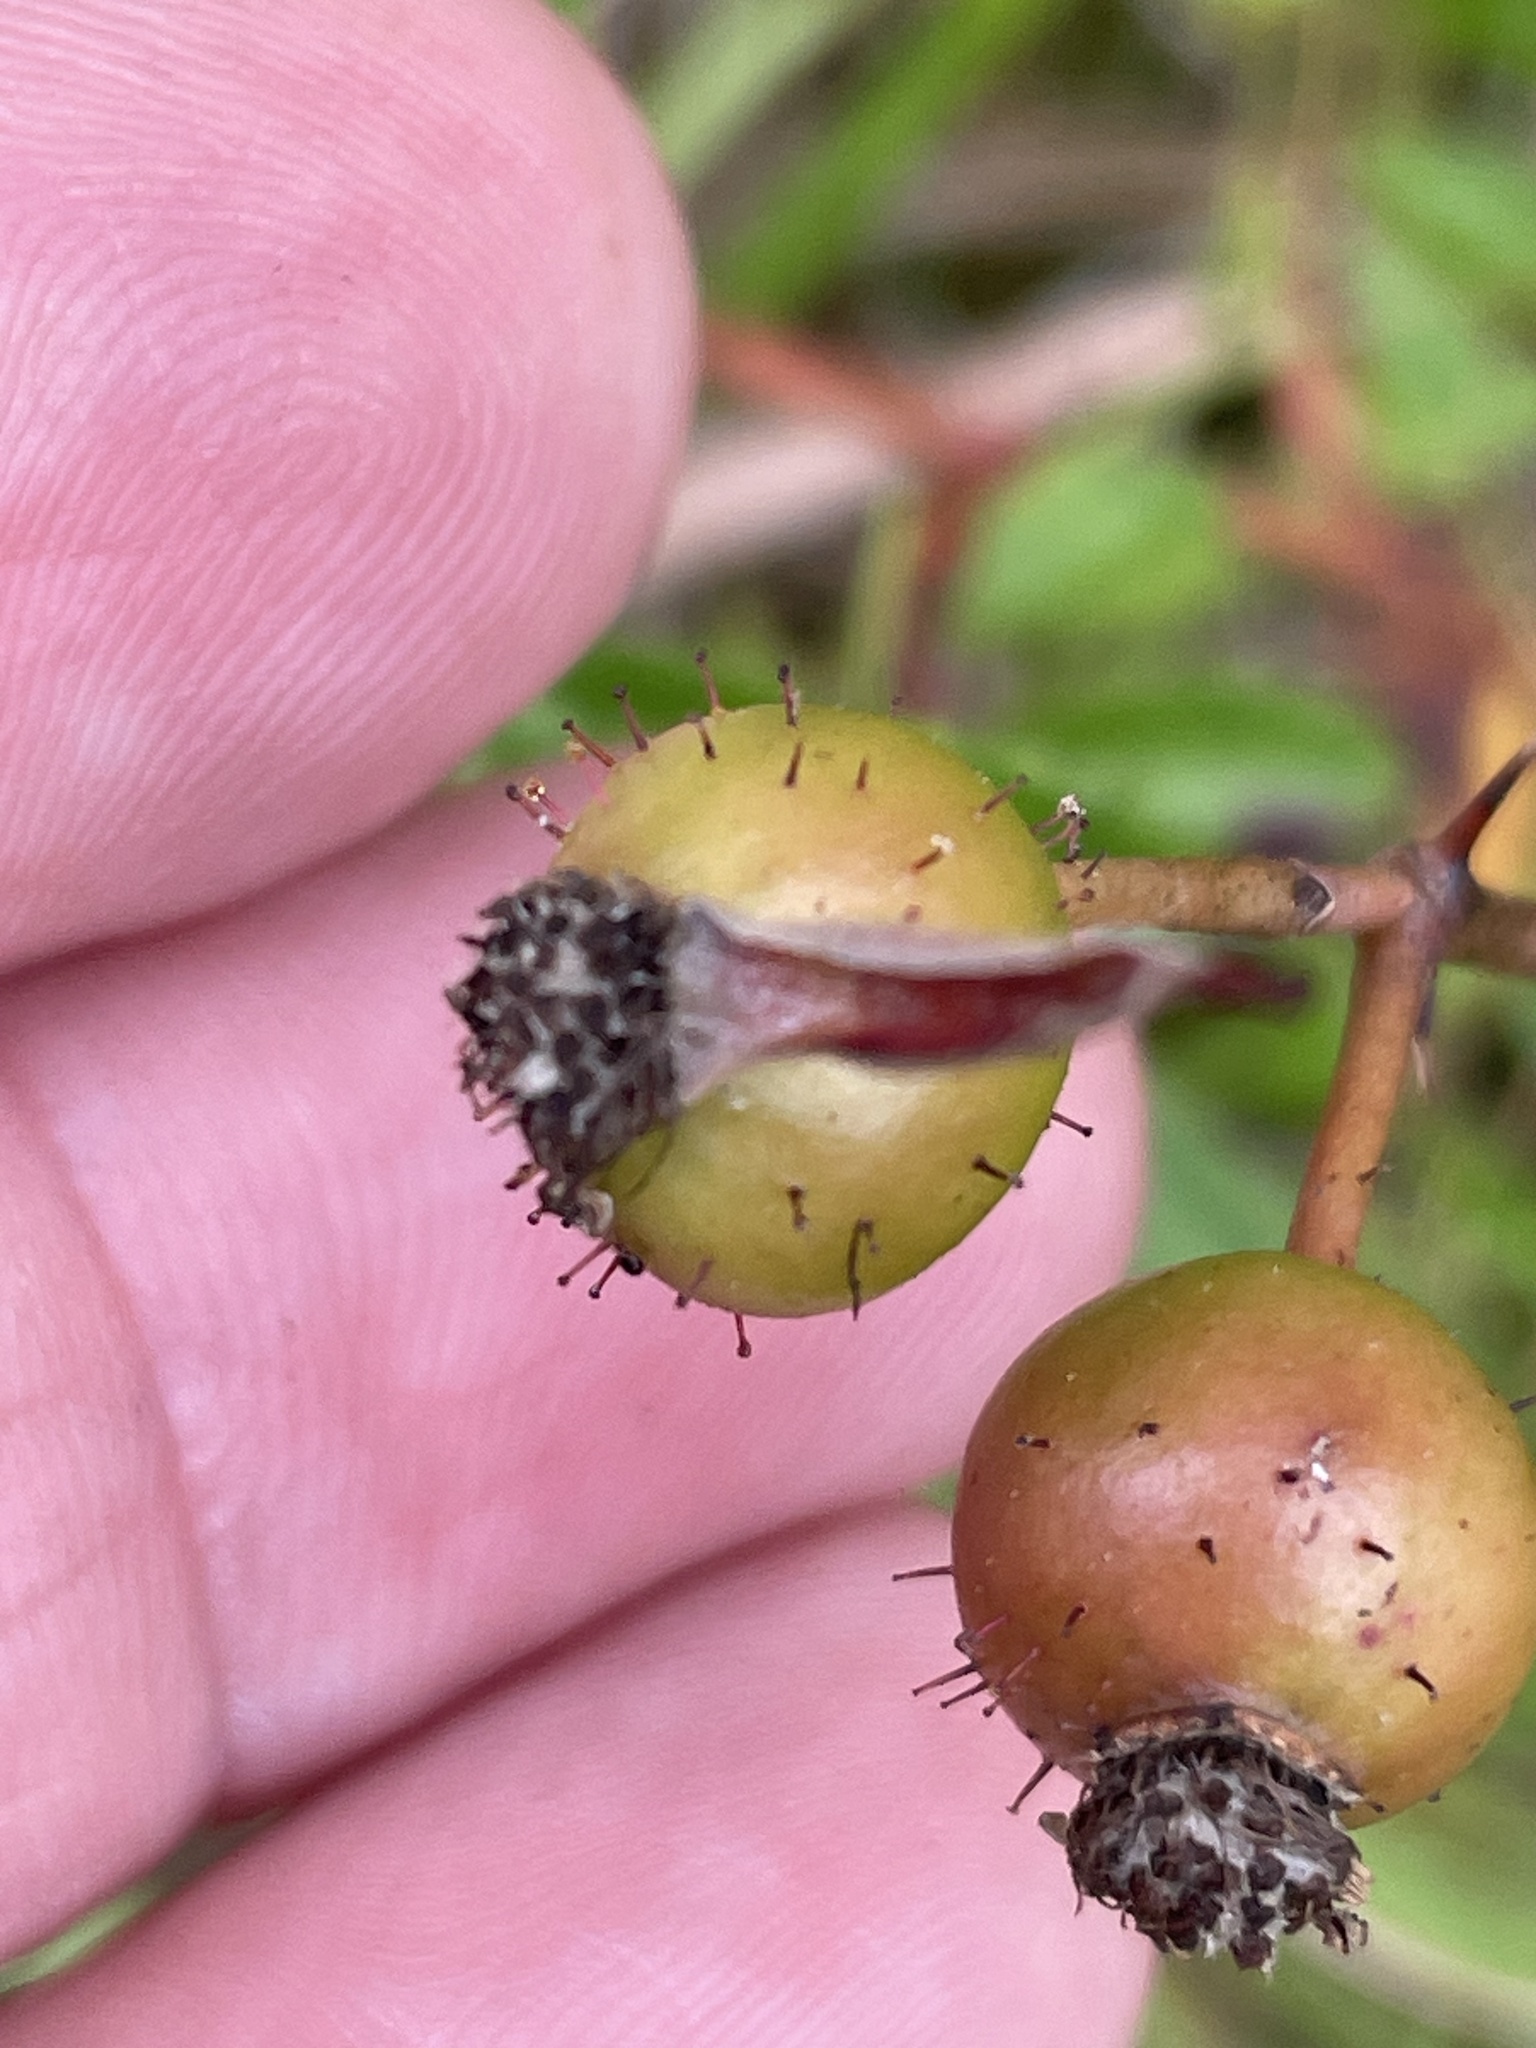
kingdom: Plantae
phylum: Tracheophyta
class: Magnoliopsida
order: Rosales
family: Rosaceae
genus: Rosa
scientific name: Rosa carolina
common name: Pasture rose
